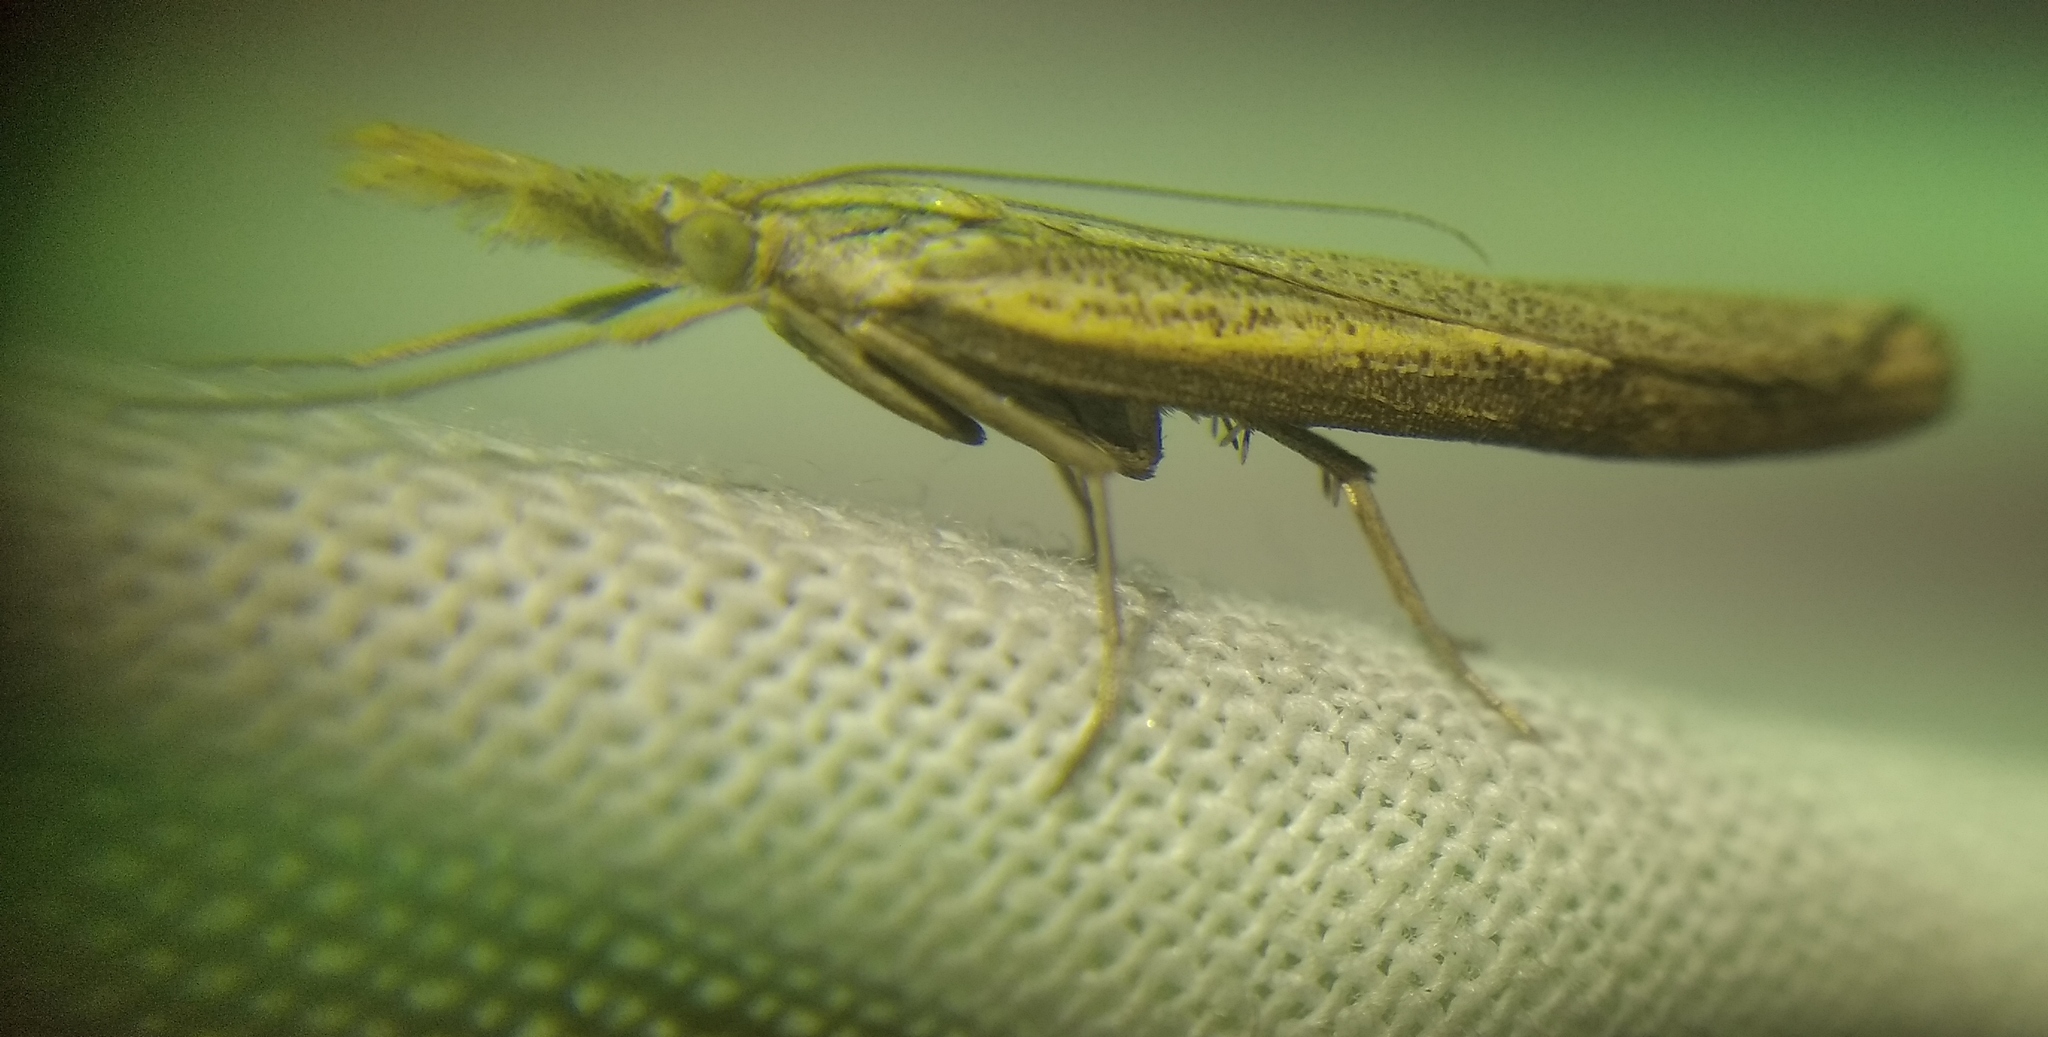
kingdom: Animalia
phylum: Arthropoda
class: Insecta
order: Lepidoptera
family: Crambidae
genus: Agriphila
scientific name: Agriphila poliellus
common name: Grey grass-veneer
